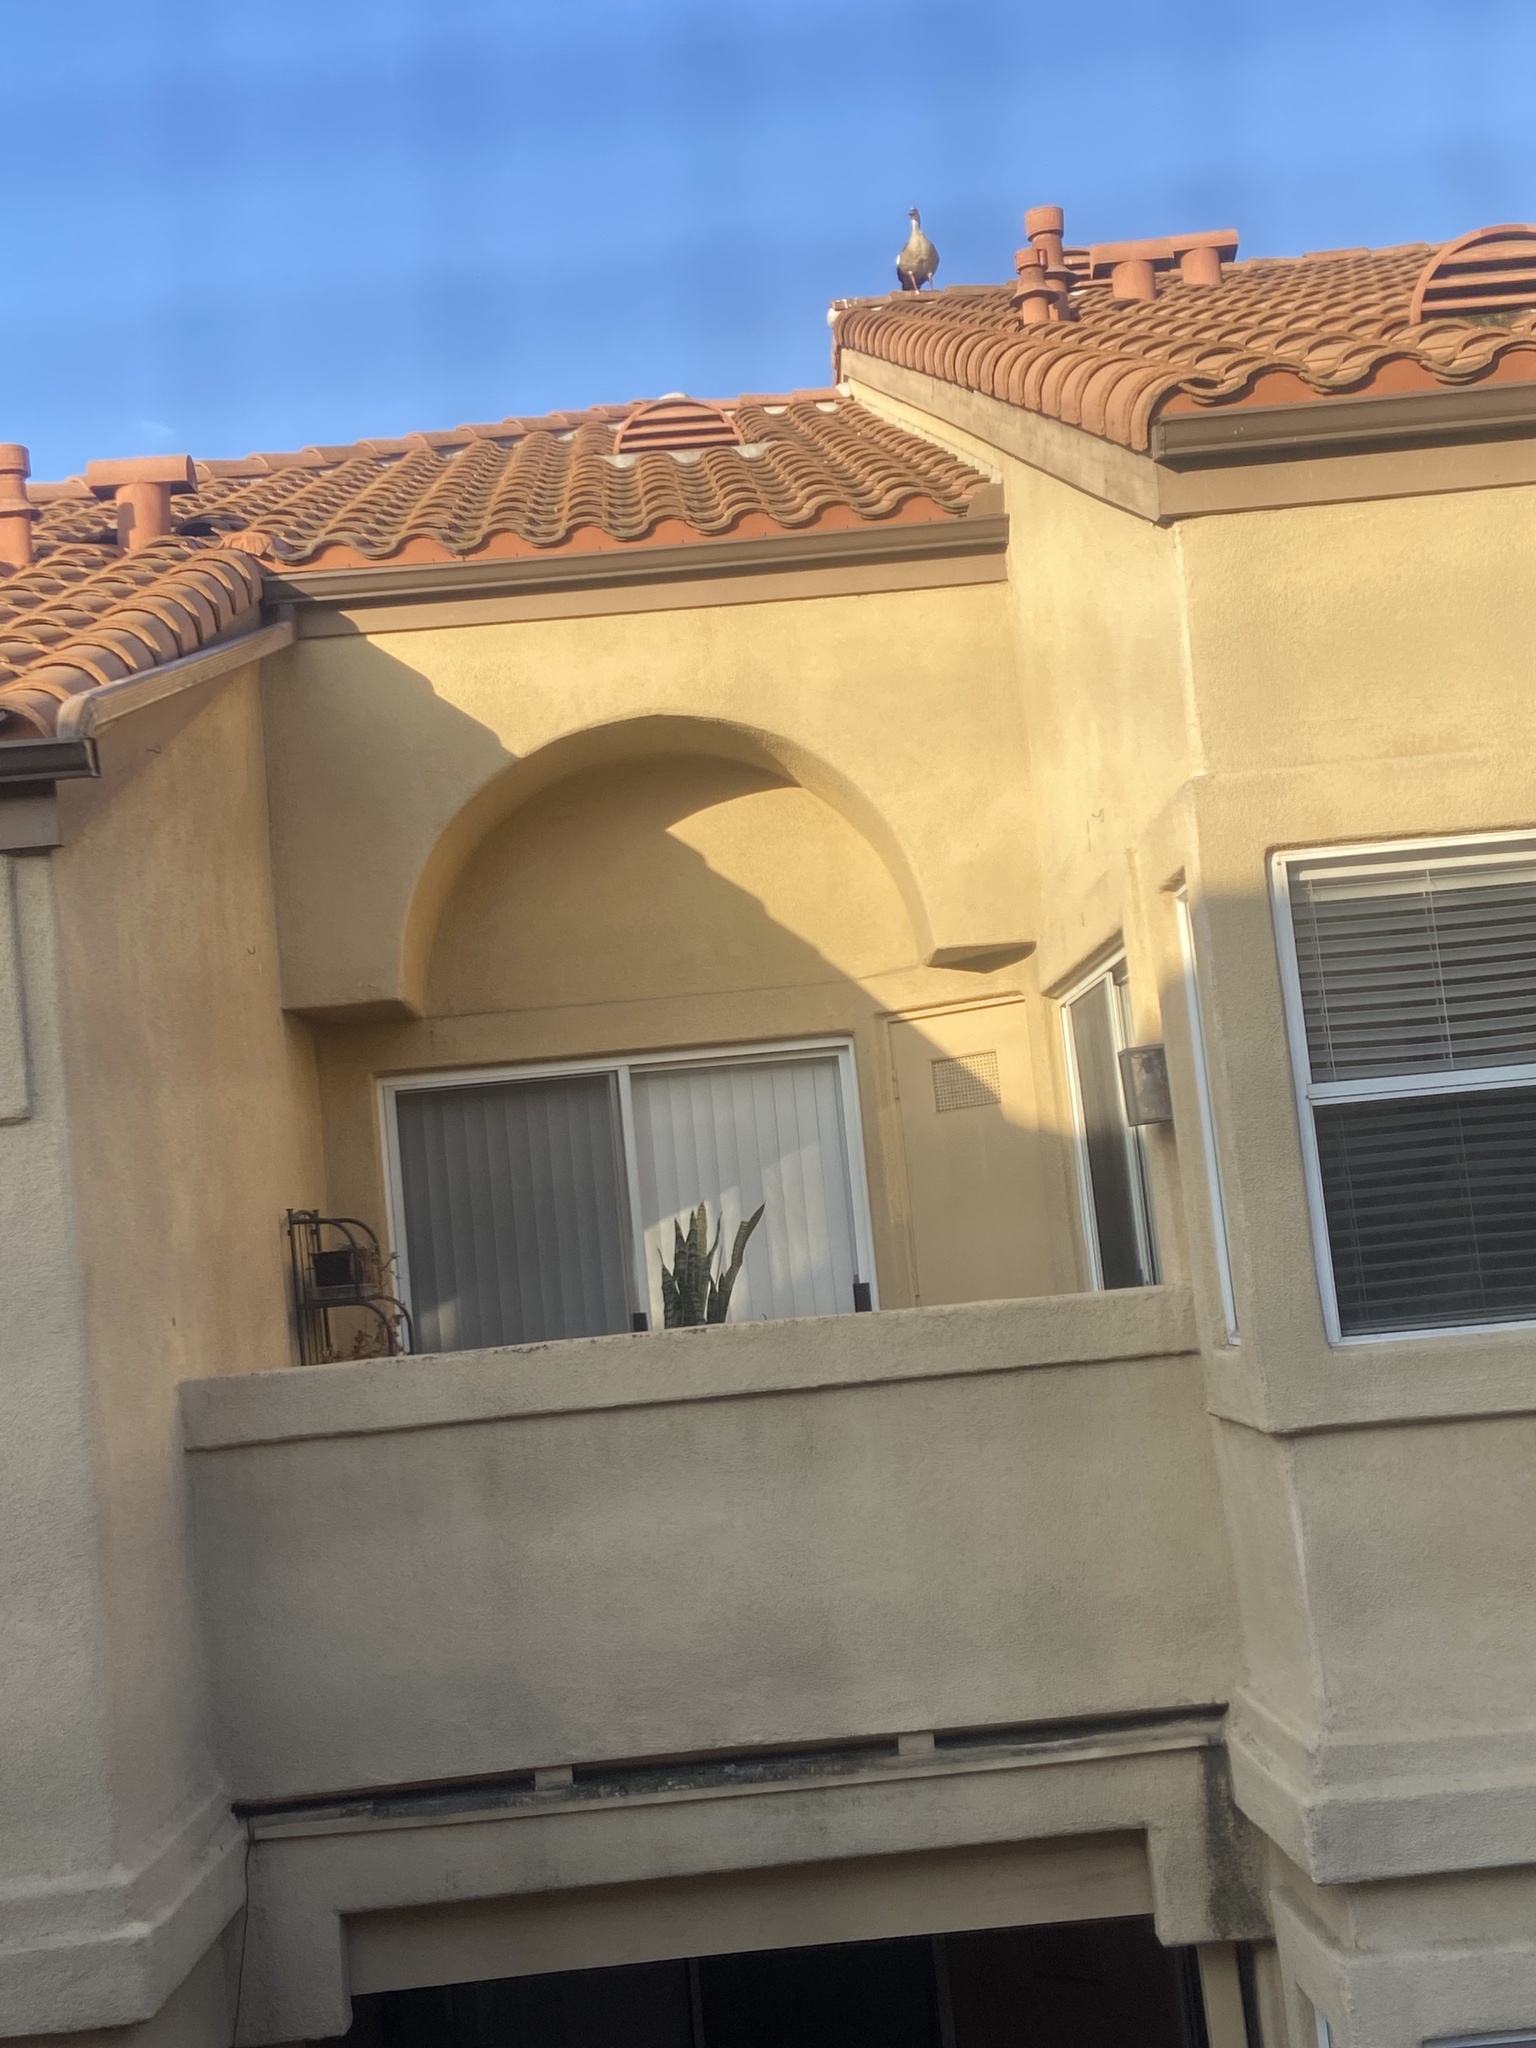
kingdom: Animalia
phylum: Chordata
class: Aves
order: Anseriformes
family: Anatidae
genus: Alopochen
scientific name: Alopochen aegyptiaca
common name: Egyptian goose
